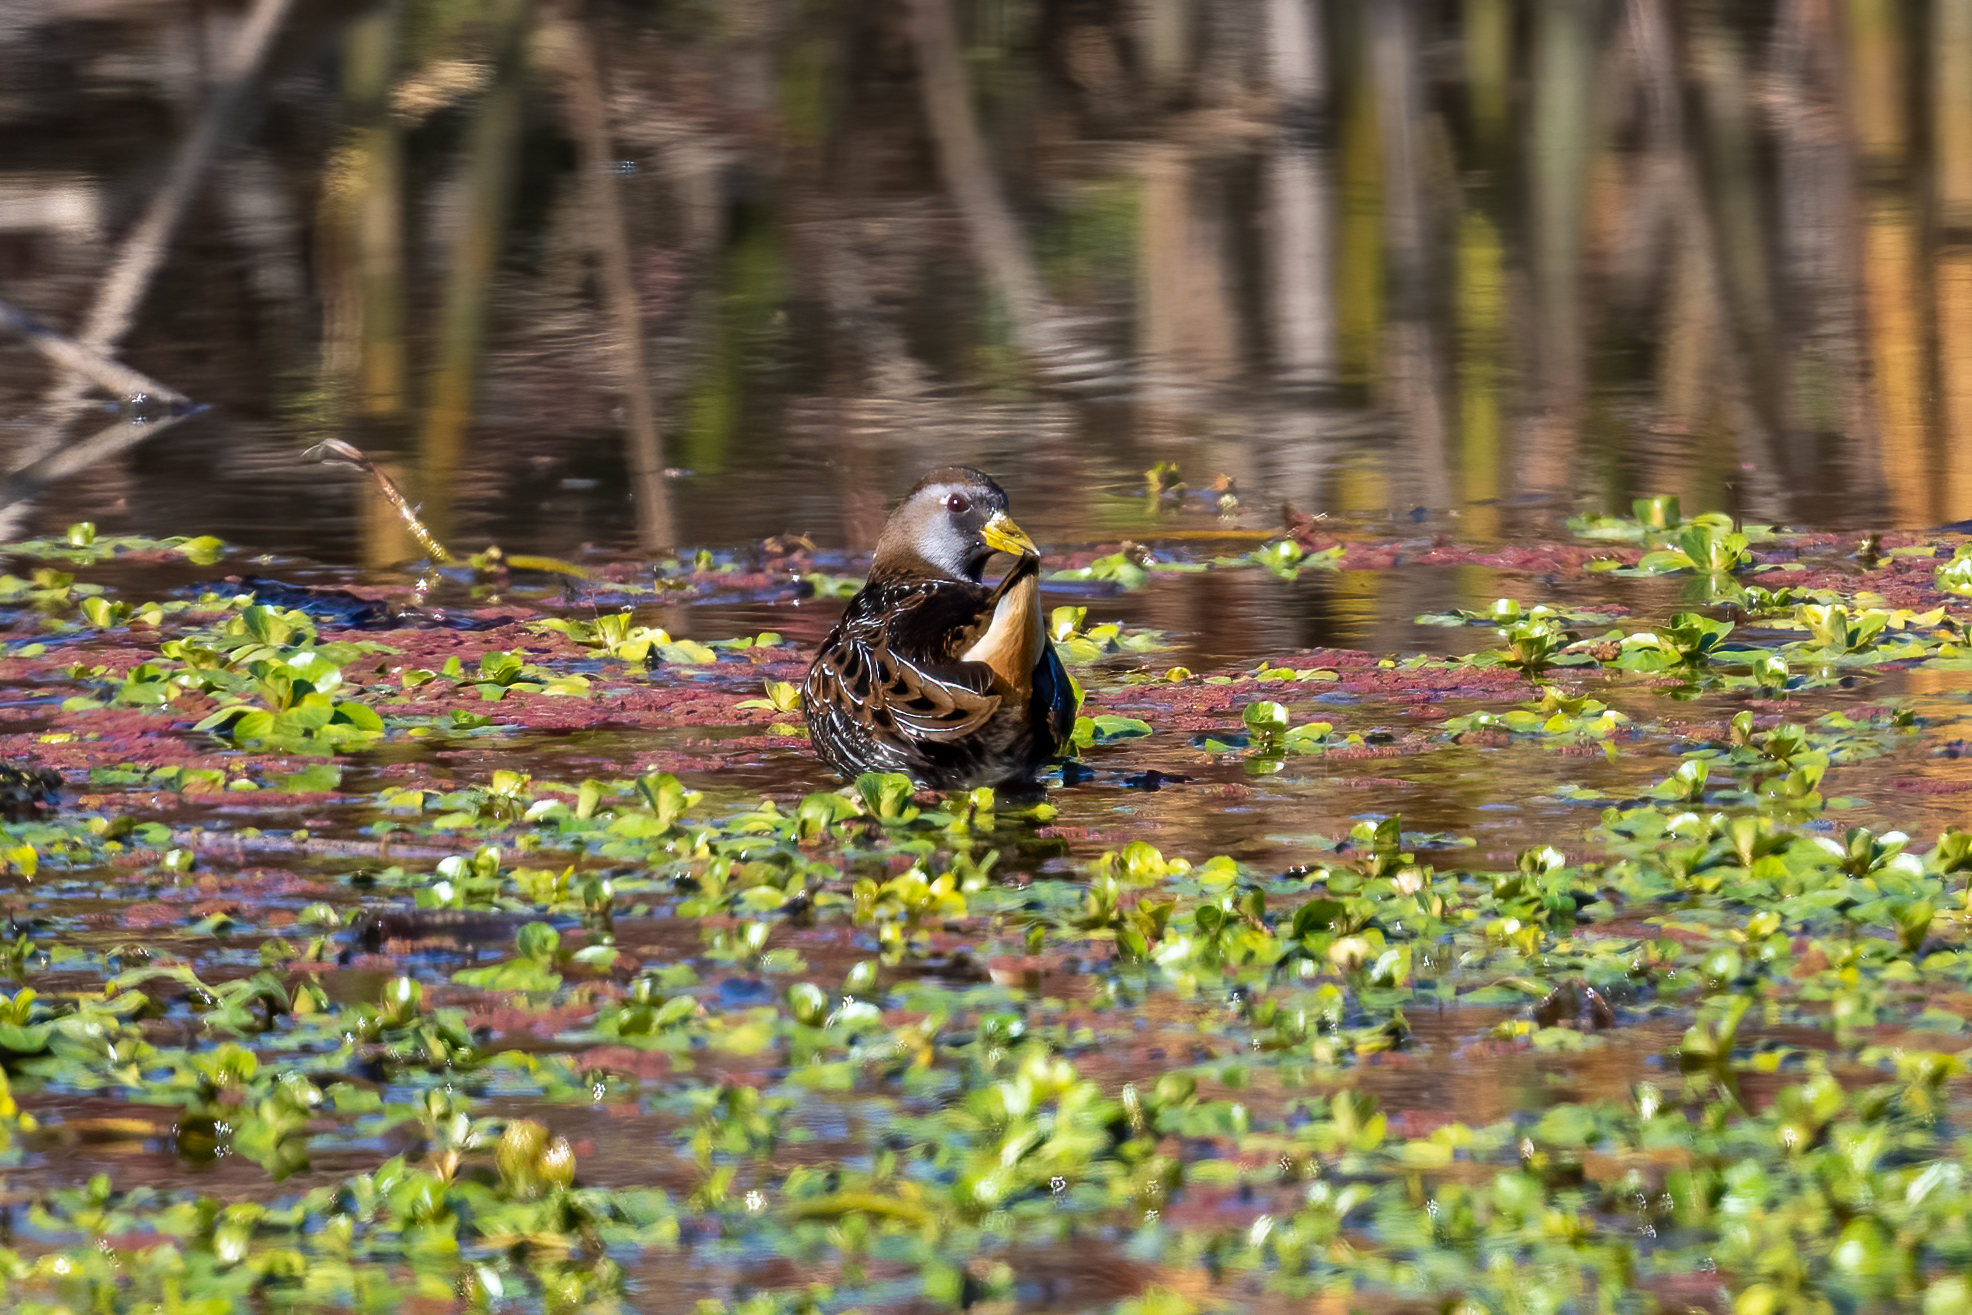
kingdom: Animalia
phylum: Chordata
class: Aves
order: Gruiformes
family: Rallidae
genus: Porzana
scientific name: Porzana carolina
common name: Sora
